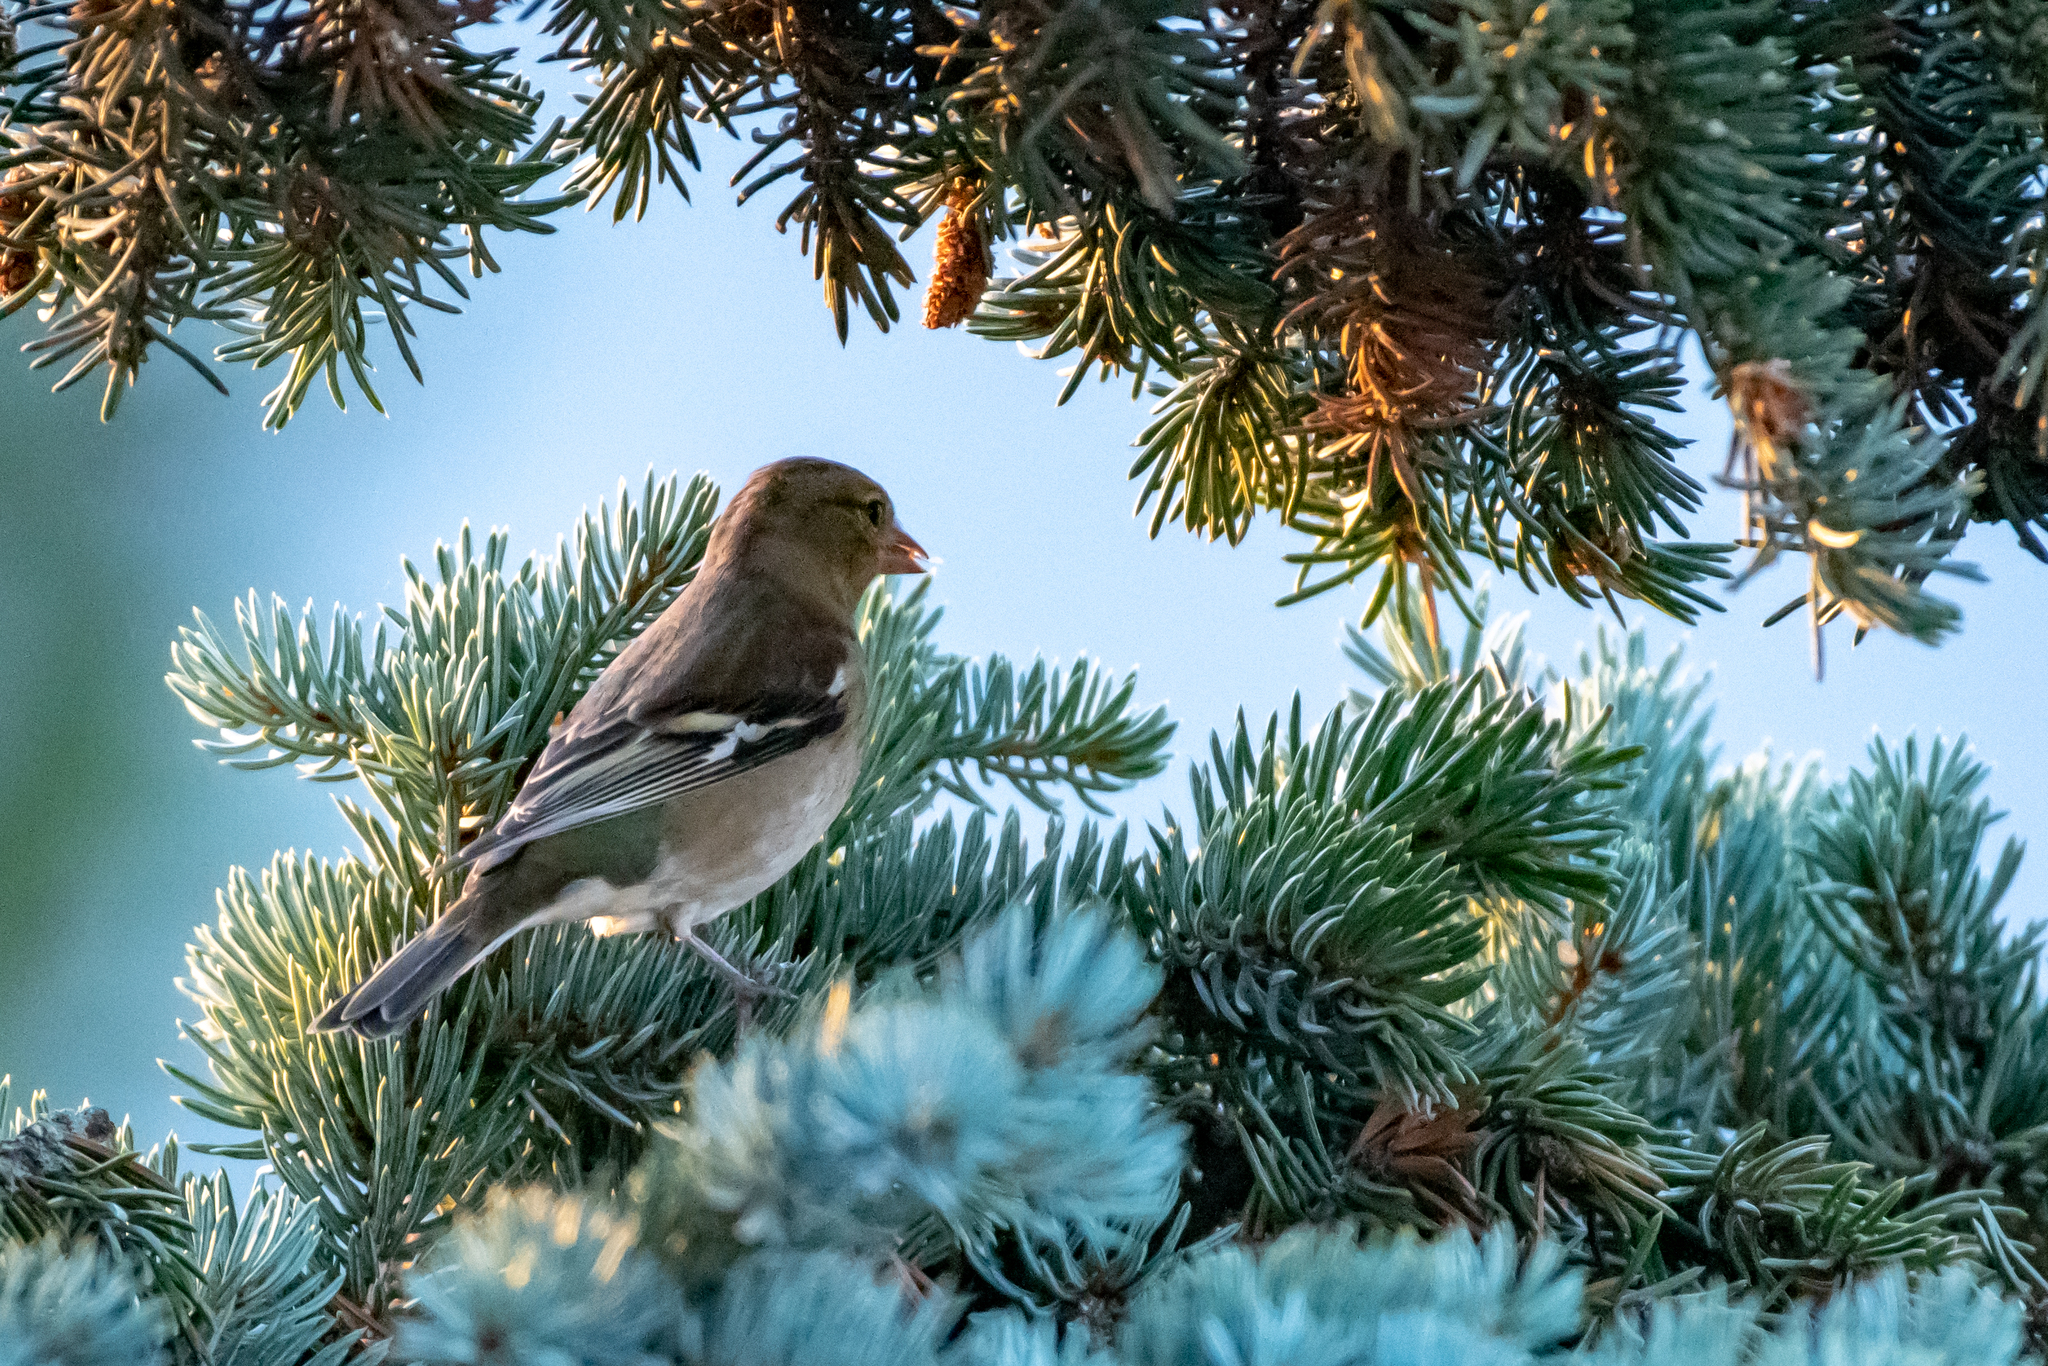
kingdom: Animalia
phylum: Chordata
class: Aves
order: Passeriformes
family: Fringillidae
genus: Fringilla
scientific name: Fringilla coelebs
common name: Common chaffinch
